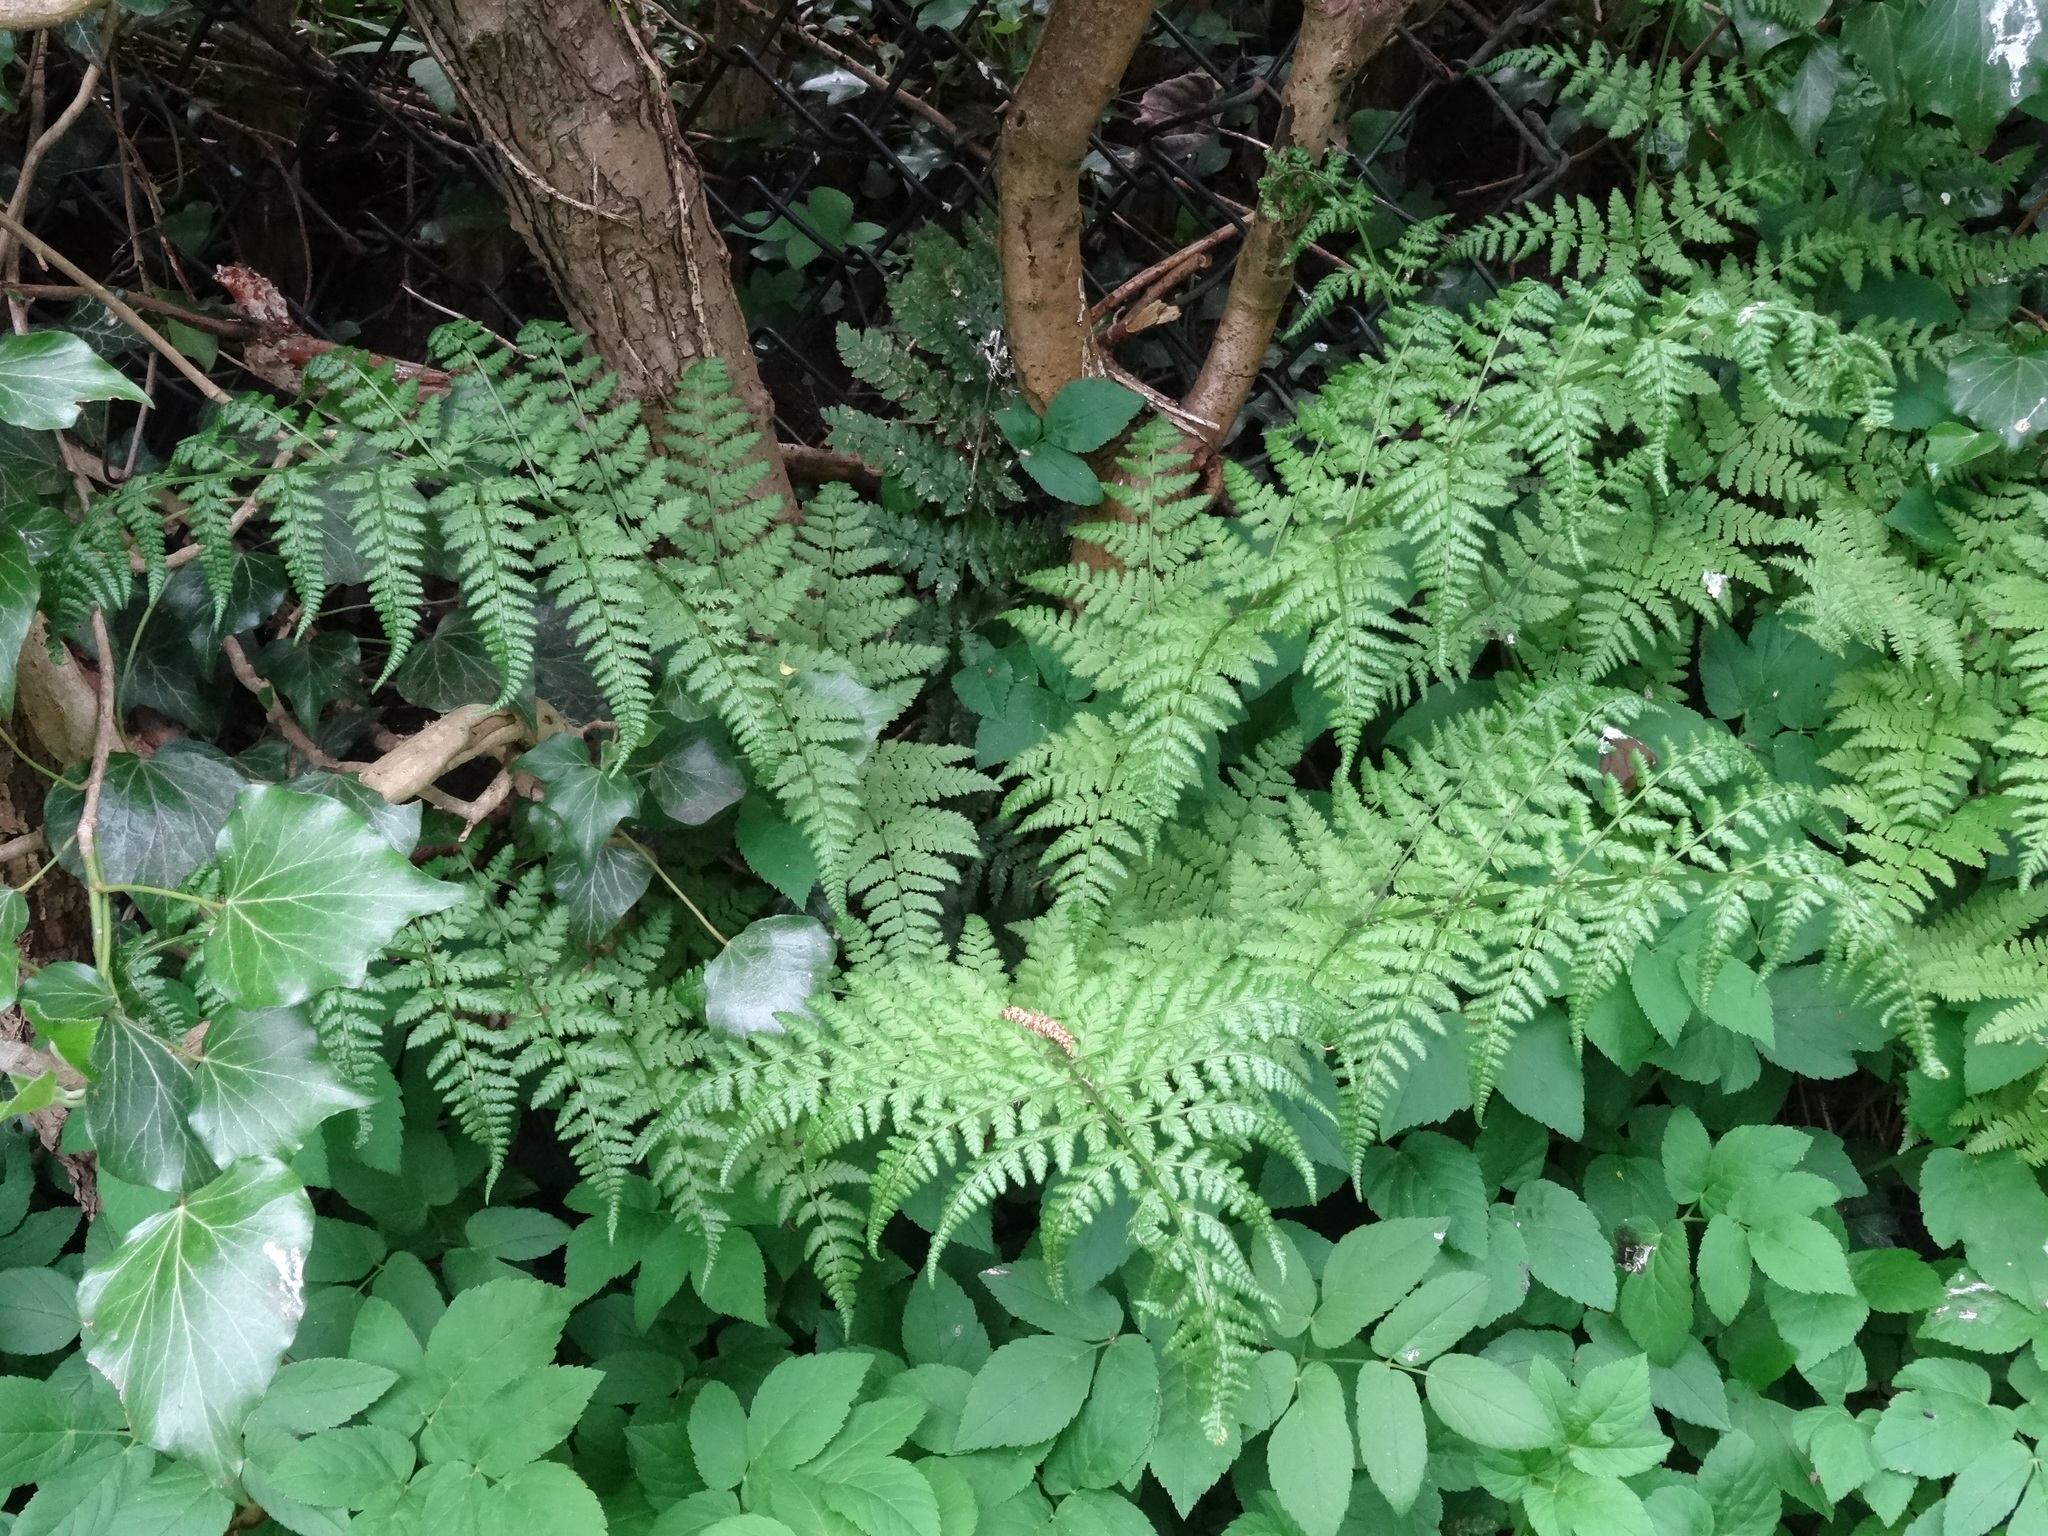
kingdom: Plantae
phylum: Tracheophyta
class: Polypodiopsida
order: Polypodiales
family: Dryopteridaceae
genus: Dryopteris
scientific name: Dryopteris dilatata
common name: Broad buckler-fern
